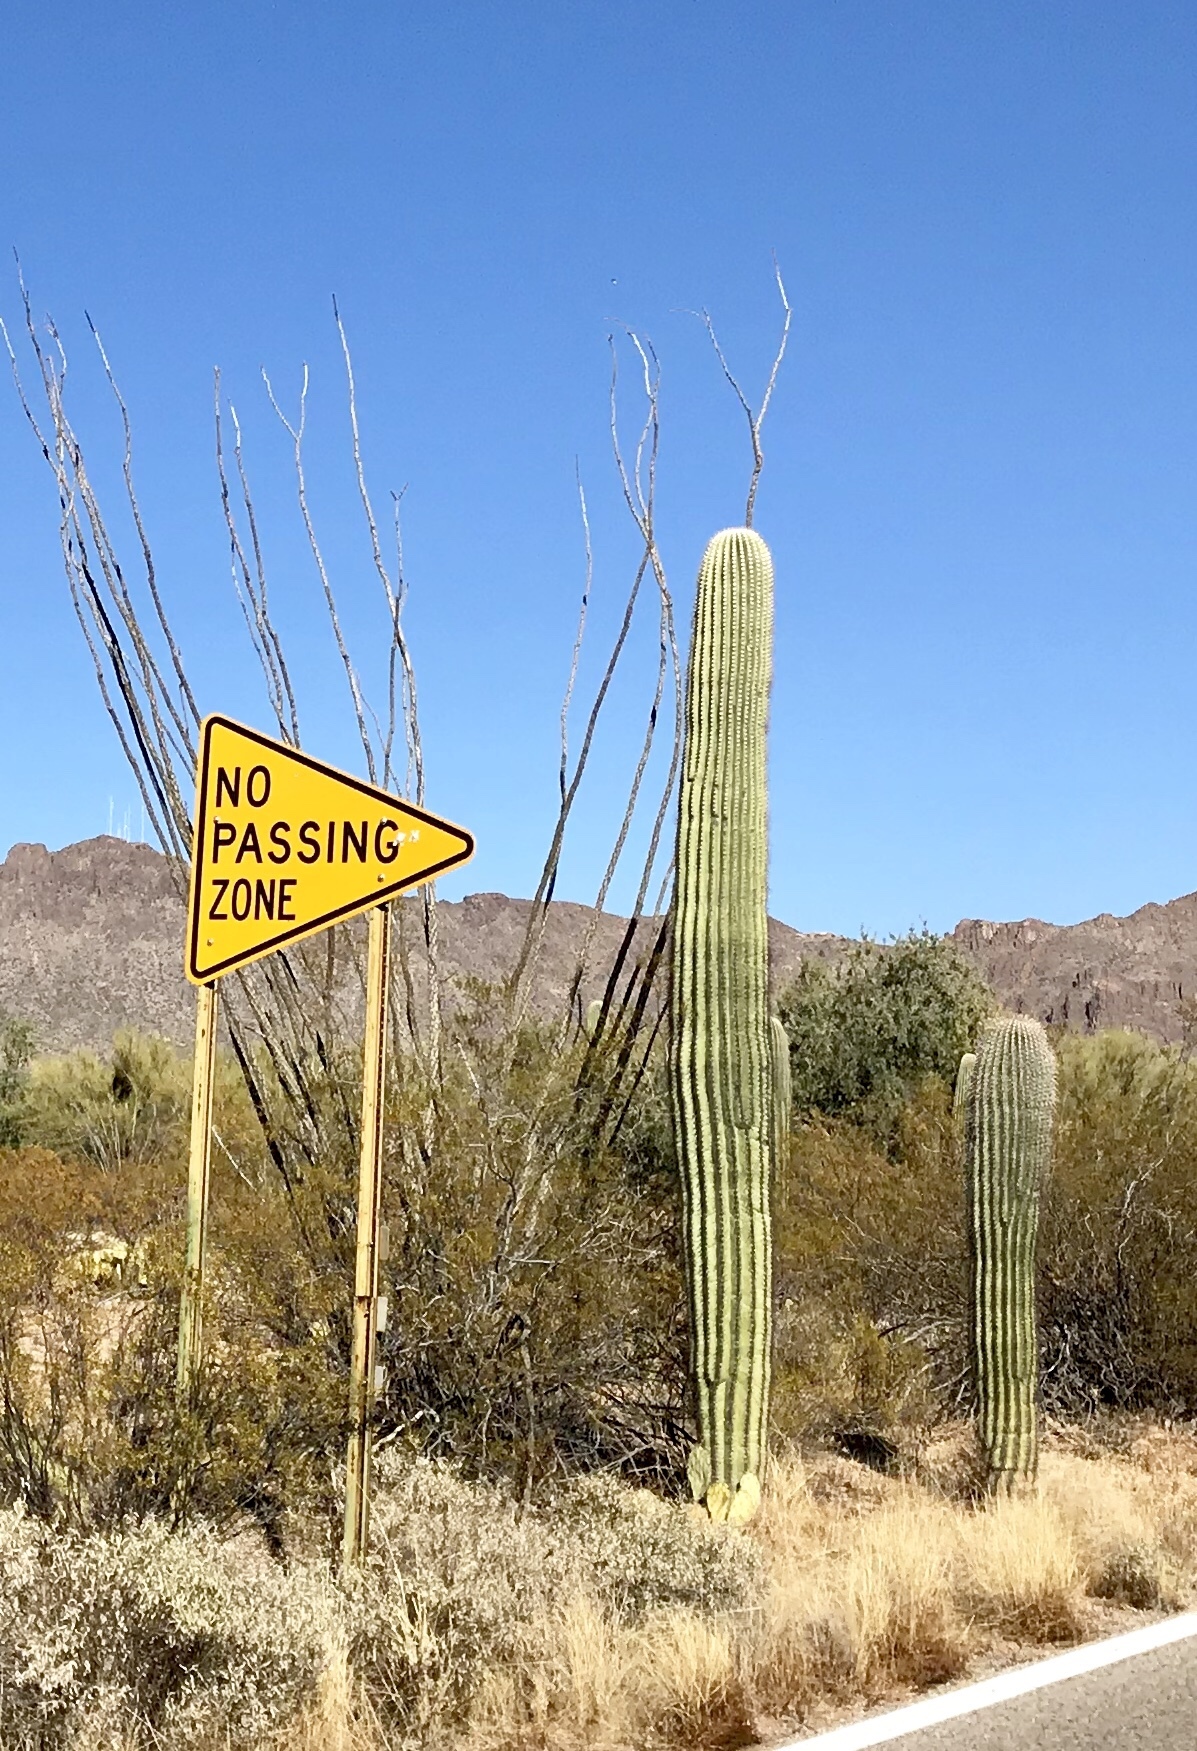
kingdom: Plantae
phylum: Tracheophyta
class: Magnoliopsida
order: Caryophyllales
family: Cactaceae
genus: Carnegiea
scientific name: Carnegiea gigantea
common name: Saguaro
